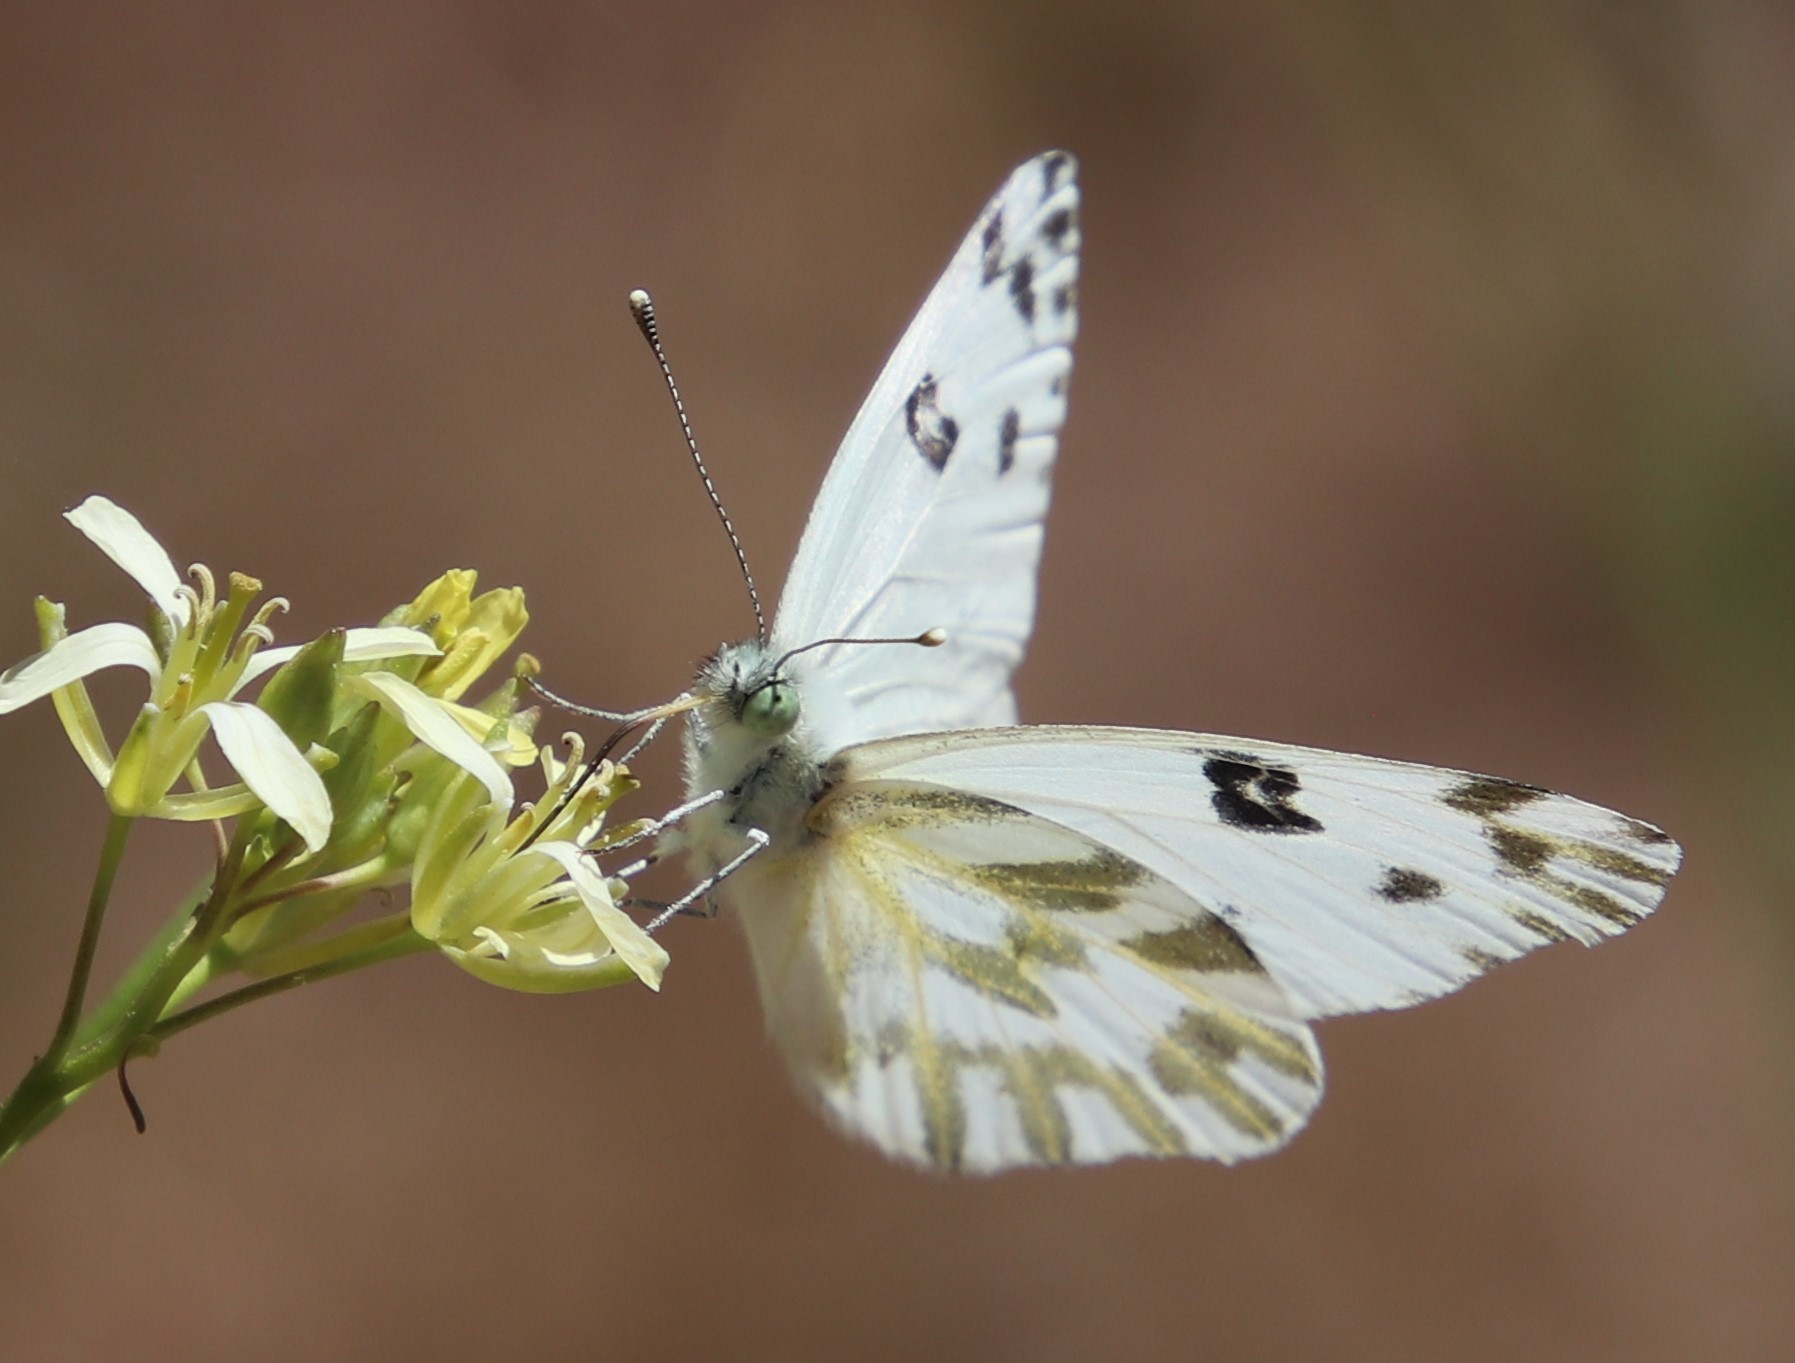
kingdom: Animalia
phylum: Arthropoda
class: Insecta
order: Lepidoptera
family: Pieridae
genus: Pontia
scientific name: Pontia beckerii
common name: Becker's white
